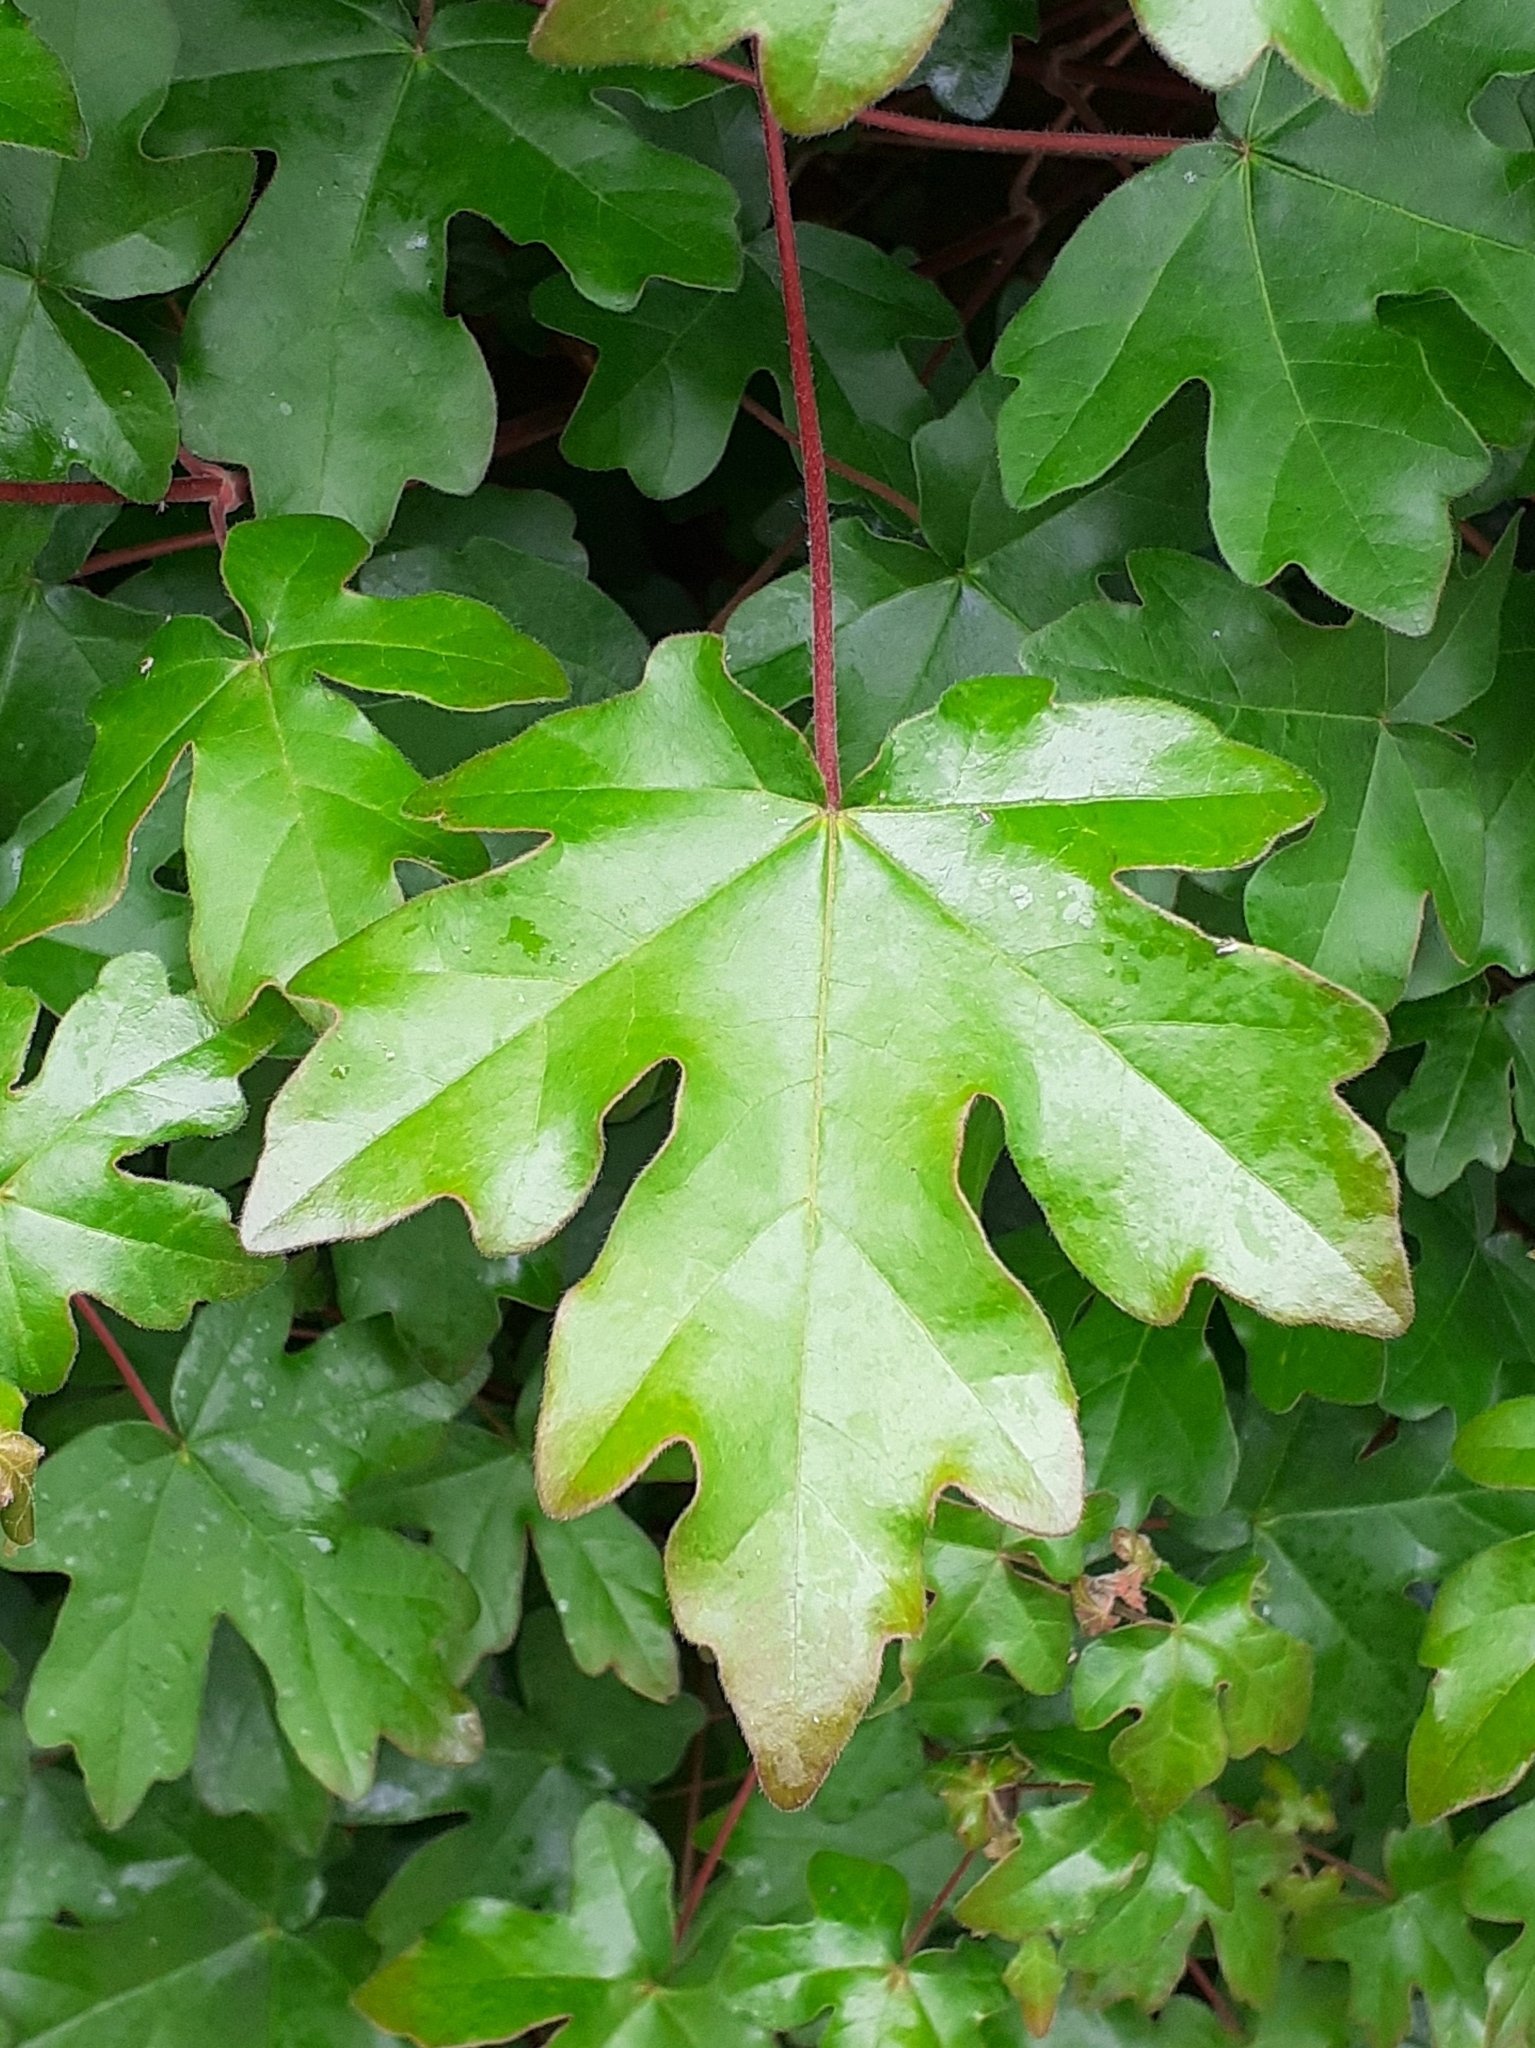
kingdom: Plantae
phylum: Tracheophyta
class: Magnoliopsida
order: Sapindales
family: Sapindaceae
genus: Acer
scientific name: Acer campestre
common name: Field maple
